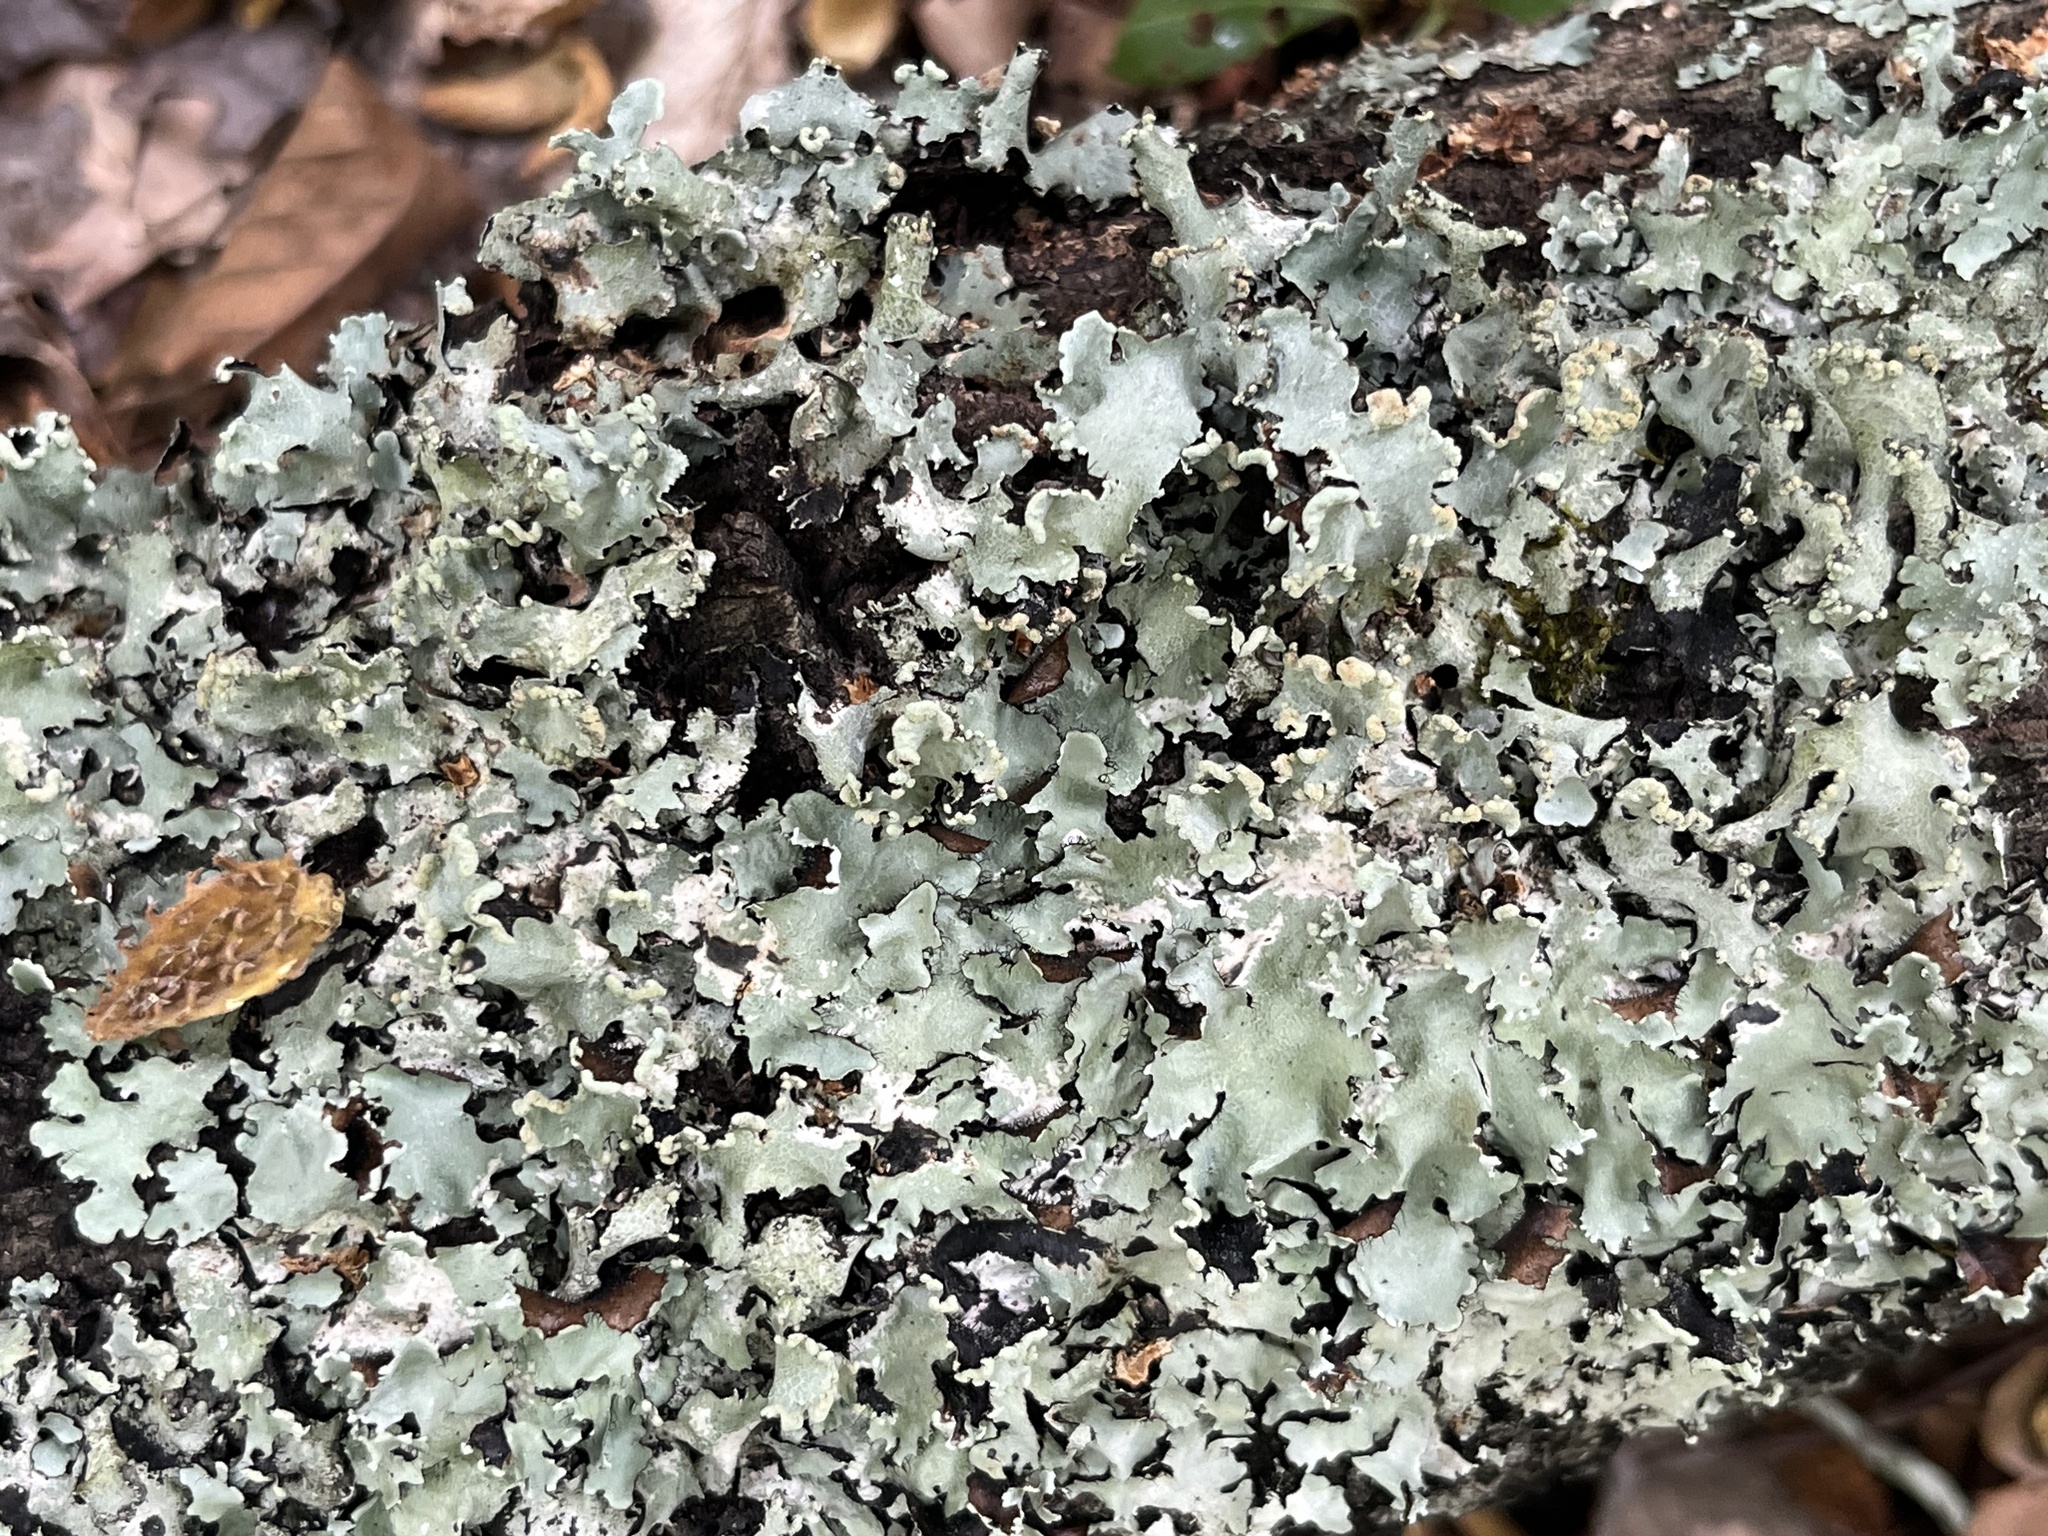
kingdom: Fungi
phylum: Ascomycota
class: Lecanoromycetes
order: Lecanorales
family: Parmeliaceae
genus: Parmotrema
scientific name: Parmotrema reticulatum
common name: Black sheet lichen
